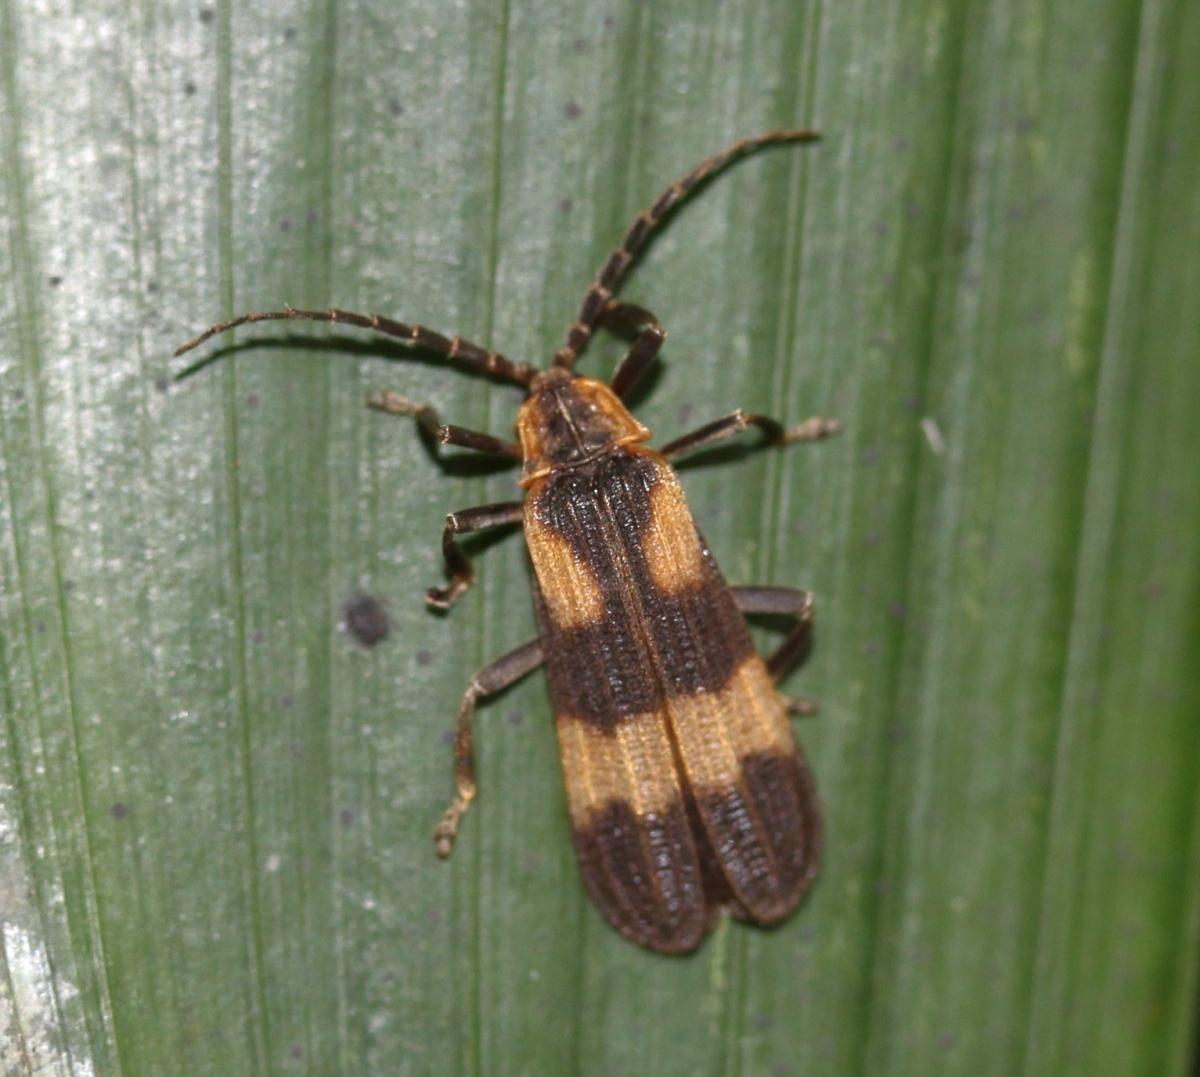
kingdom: Animalia
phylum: Arthropoda
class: Insecta
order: Coleoptera
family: Lycidae
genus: Calopteron
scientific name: Calopteron
